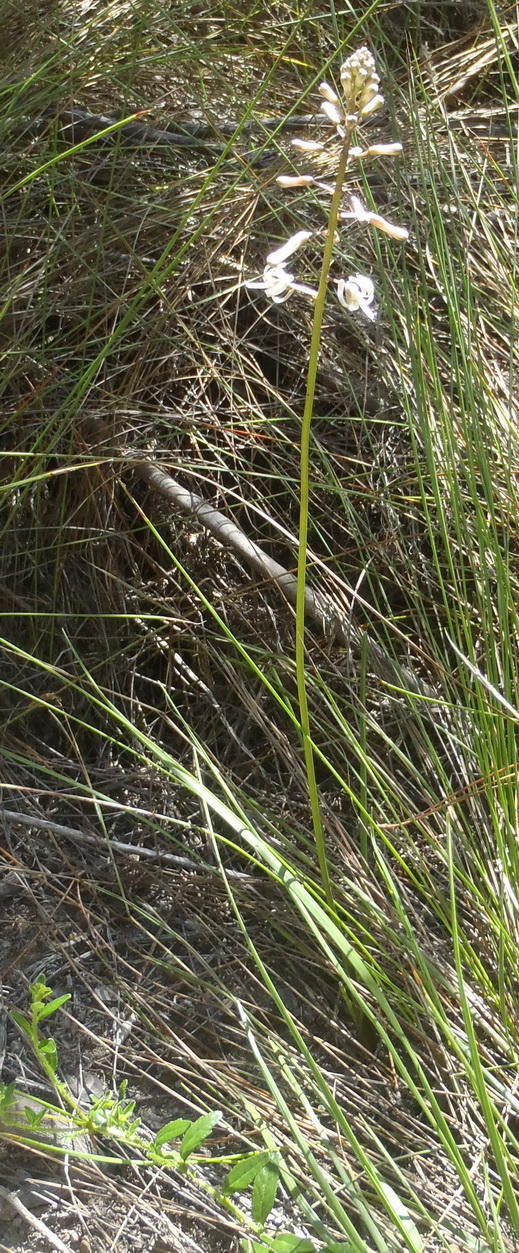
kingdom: Plantae
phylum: Tracheophyta
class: Liliopsida
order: Asparagales
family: Asparagaceae
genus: Drimia
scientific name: Drimia media
